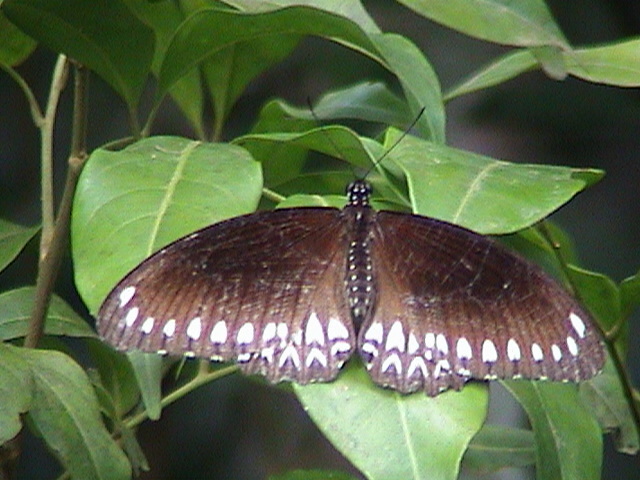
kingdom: Animalia
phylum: Arthropoda
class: Insecta
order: Lepidoptera
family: Papilionidae
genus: Papilio
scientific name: Papilio dravidarum
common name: Malabar raven
